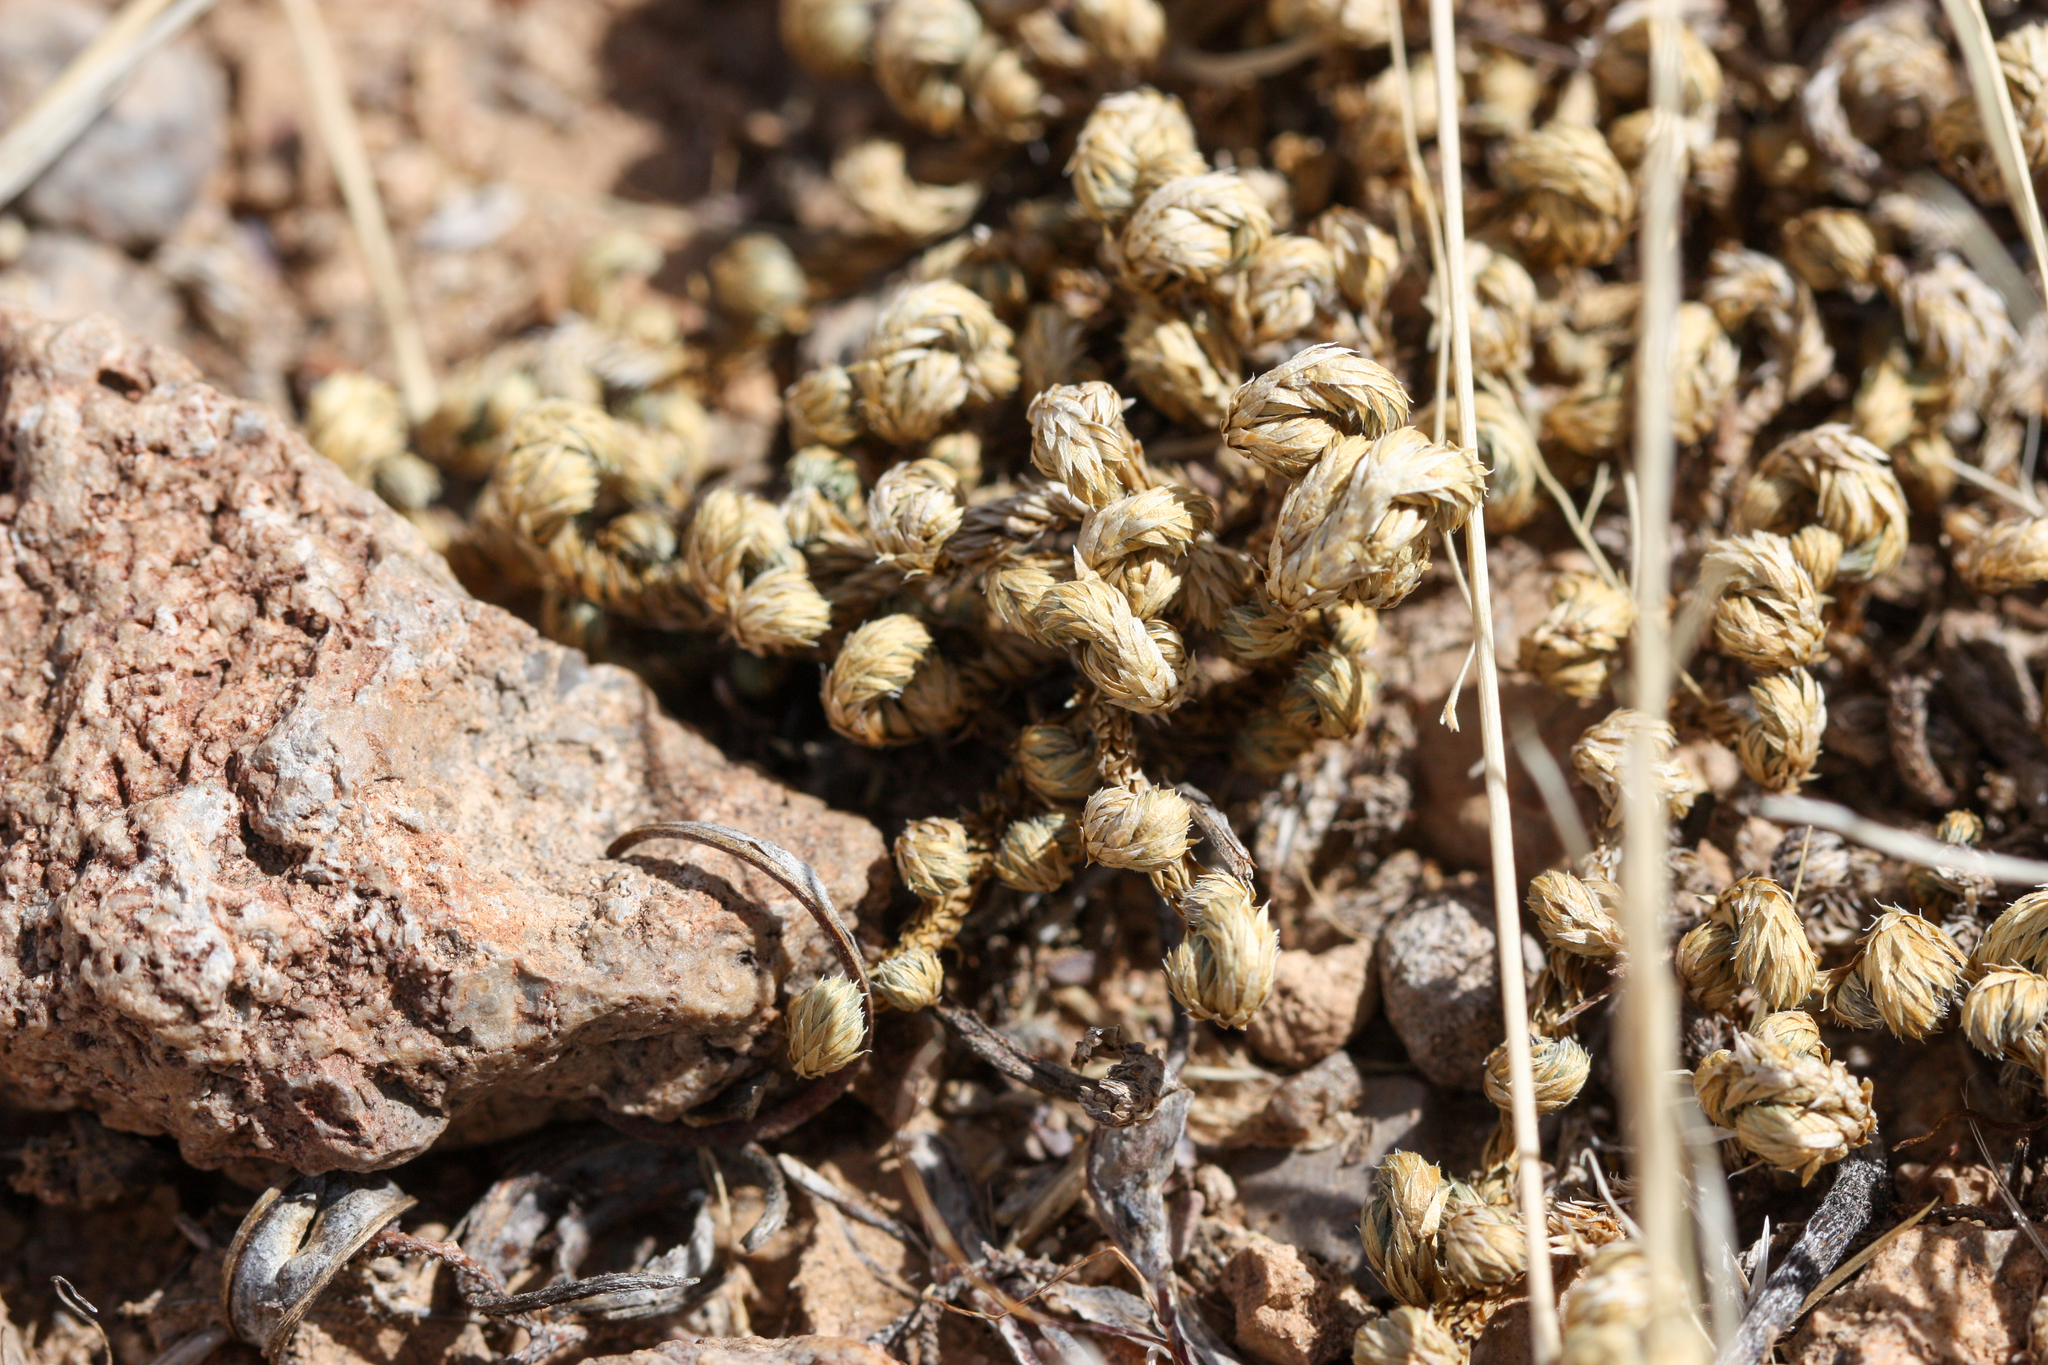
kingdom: Plantae
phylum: Tracheophyta
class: Lycopodiopsida
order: Selaginellales
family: Selaginellaceae
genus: Selaginella
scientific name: Selaginella arizonica
